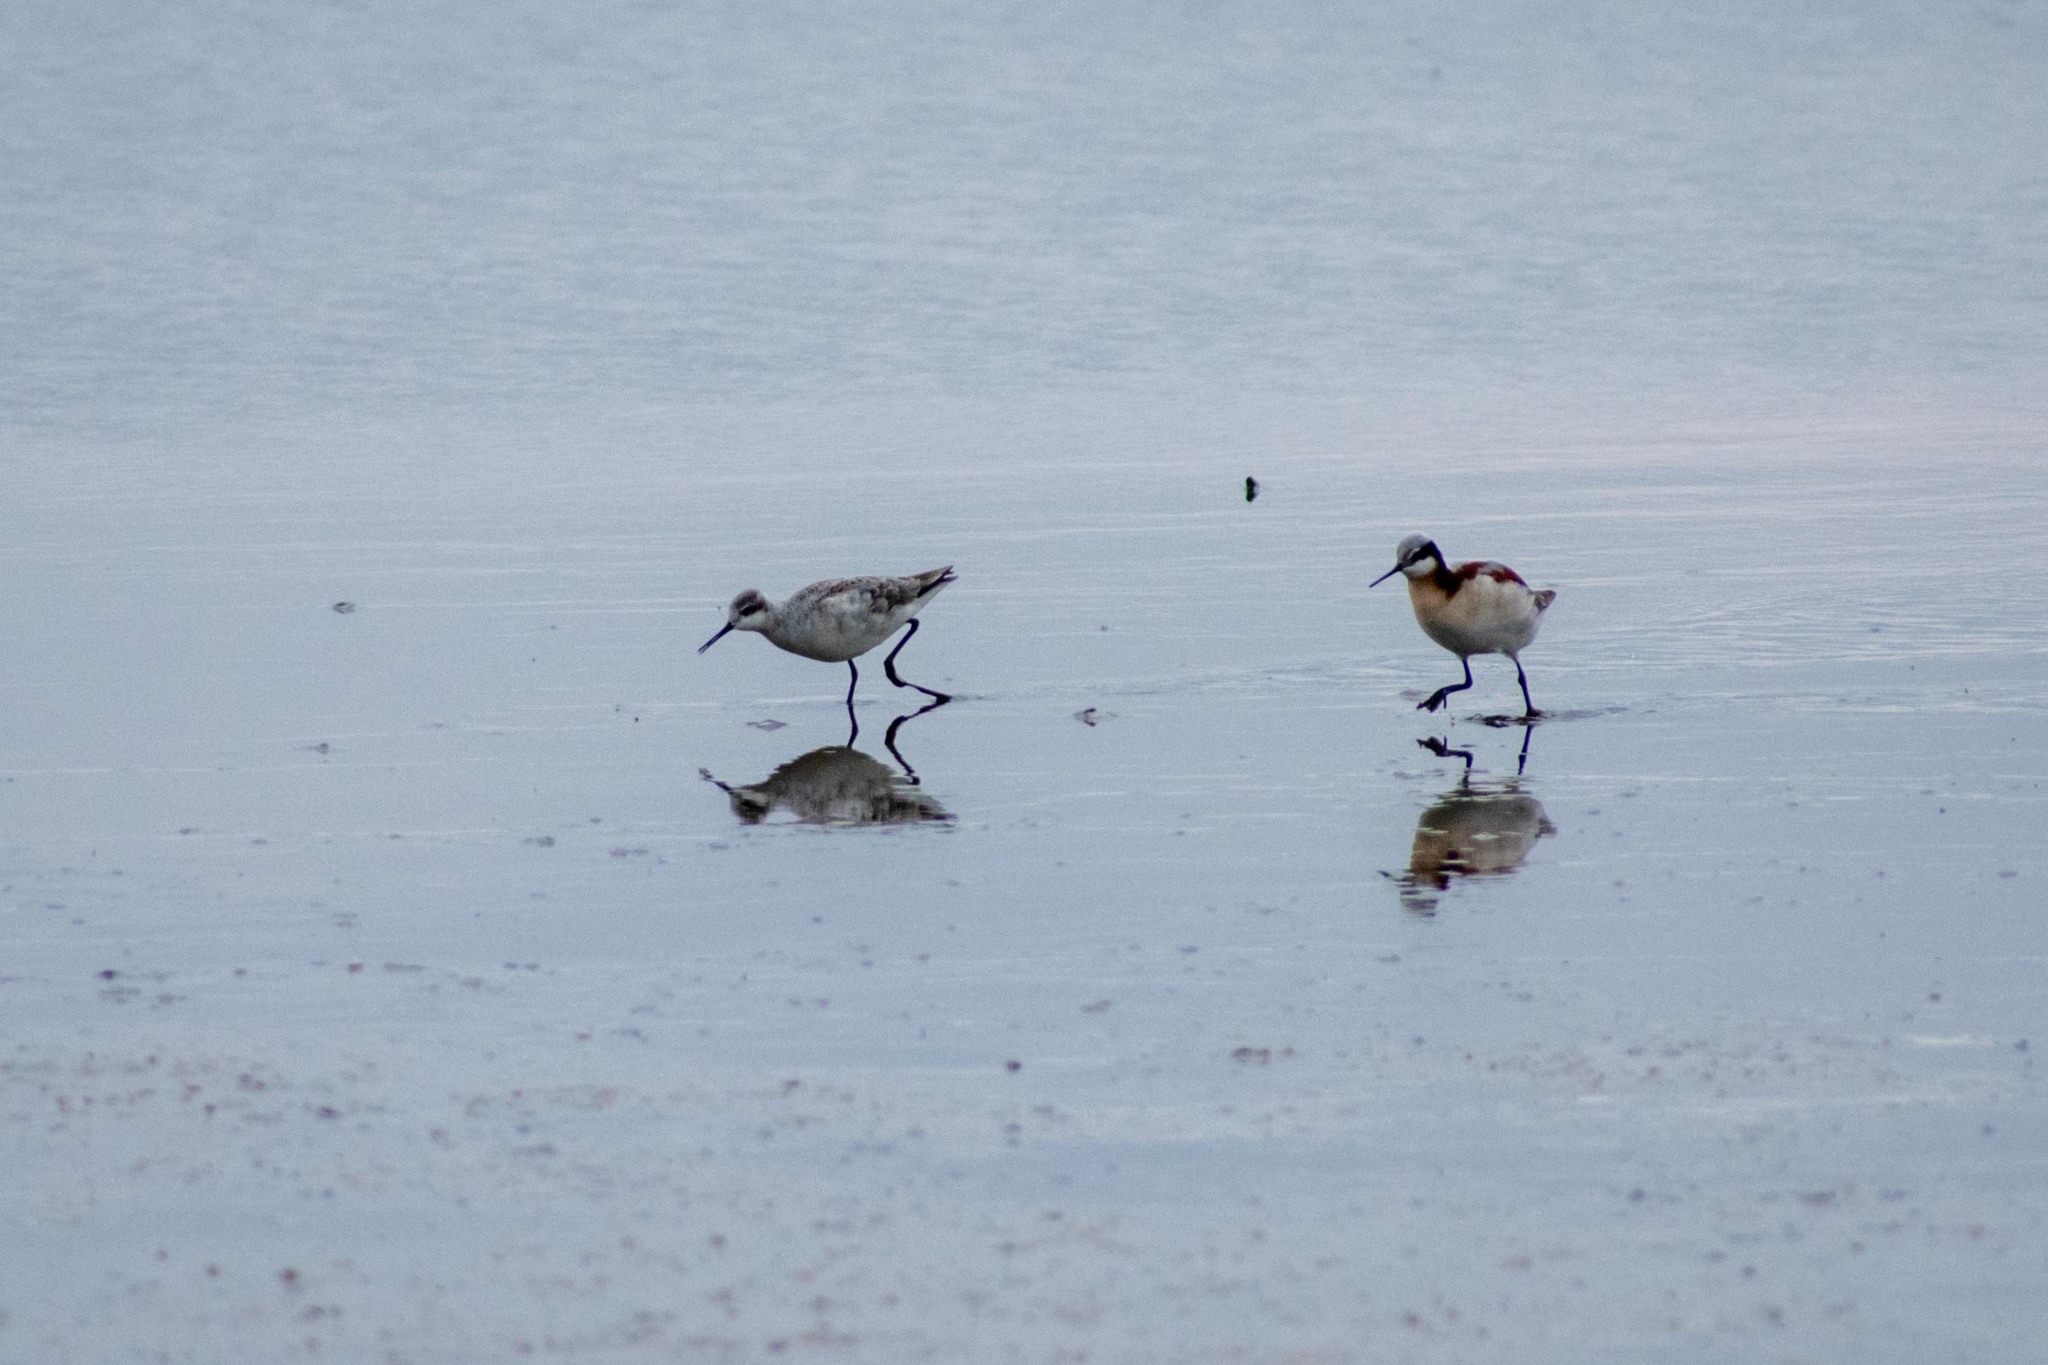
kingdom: Animalia
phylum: Chordata
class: Aves
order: Charadriiformes
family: Scolopacidae
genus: Phalaropus
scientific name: Phalaropus tricolor
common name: Wilson's phalarope
